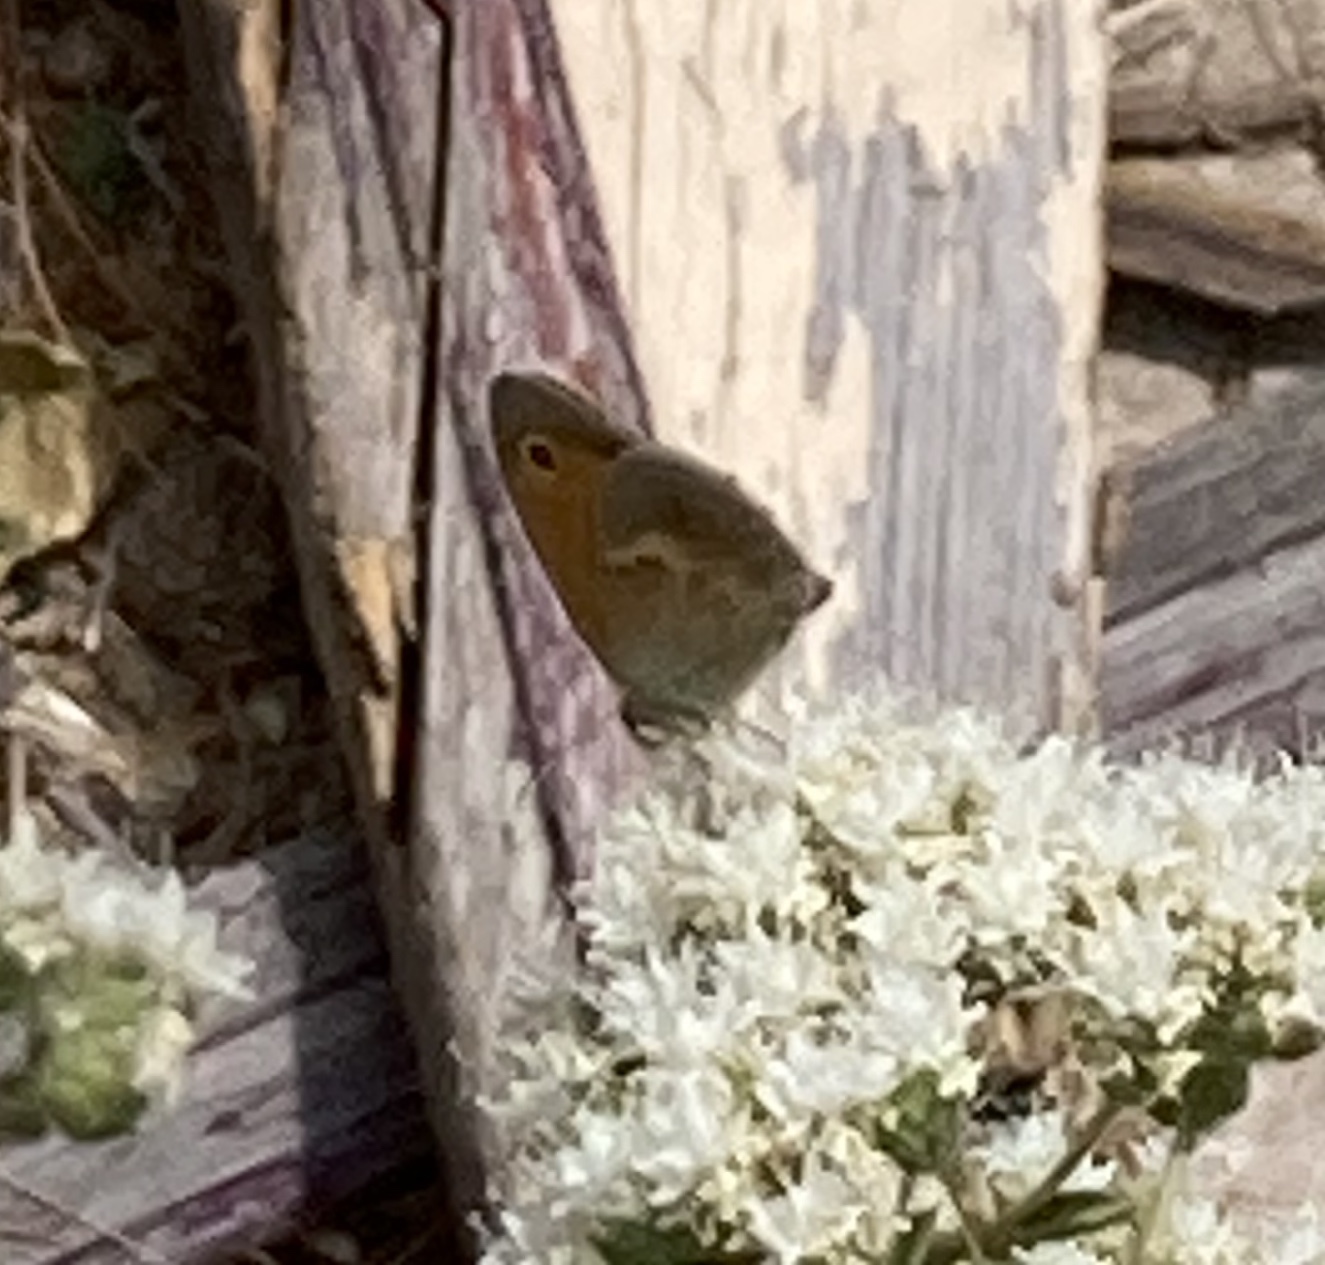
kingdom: Animalia
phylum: Arthropoda
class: Insecta
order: Lepidoptera
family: Nymphalidae
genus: Coenonympha
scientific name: Coenonympha pamphilus
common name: Small heath
